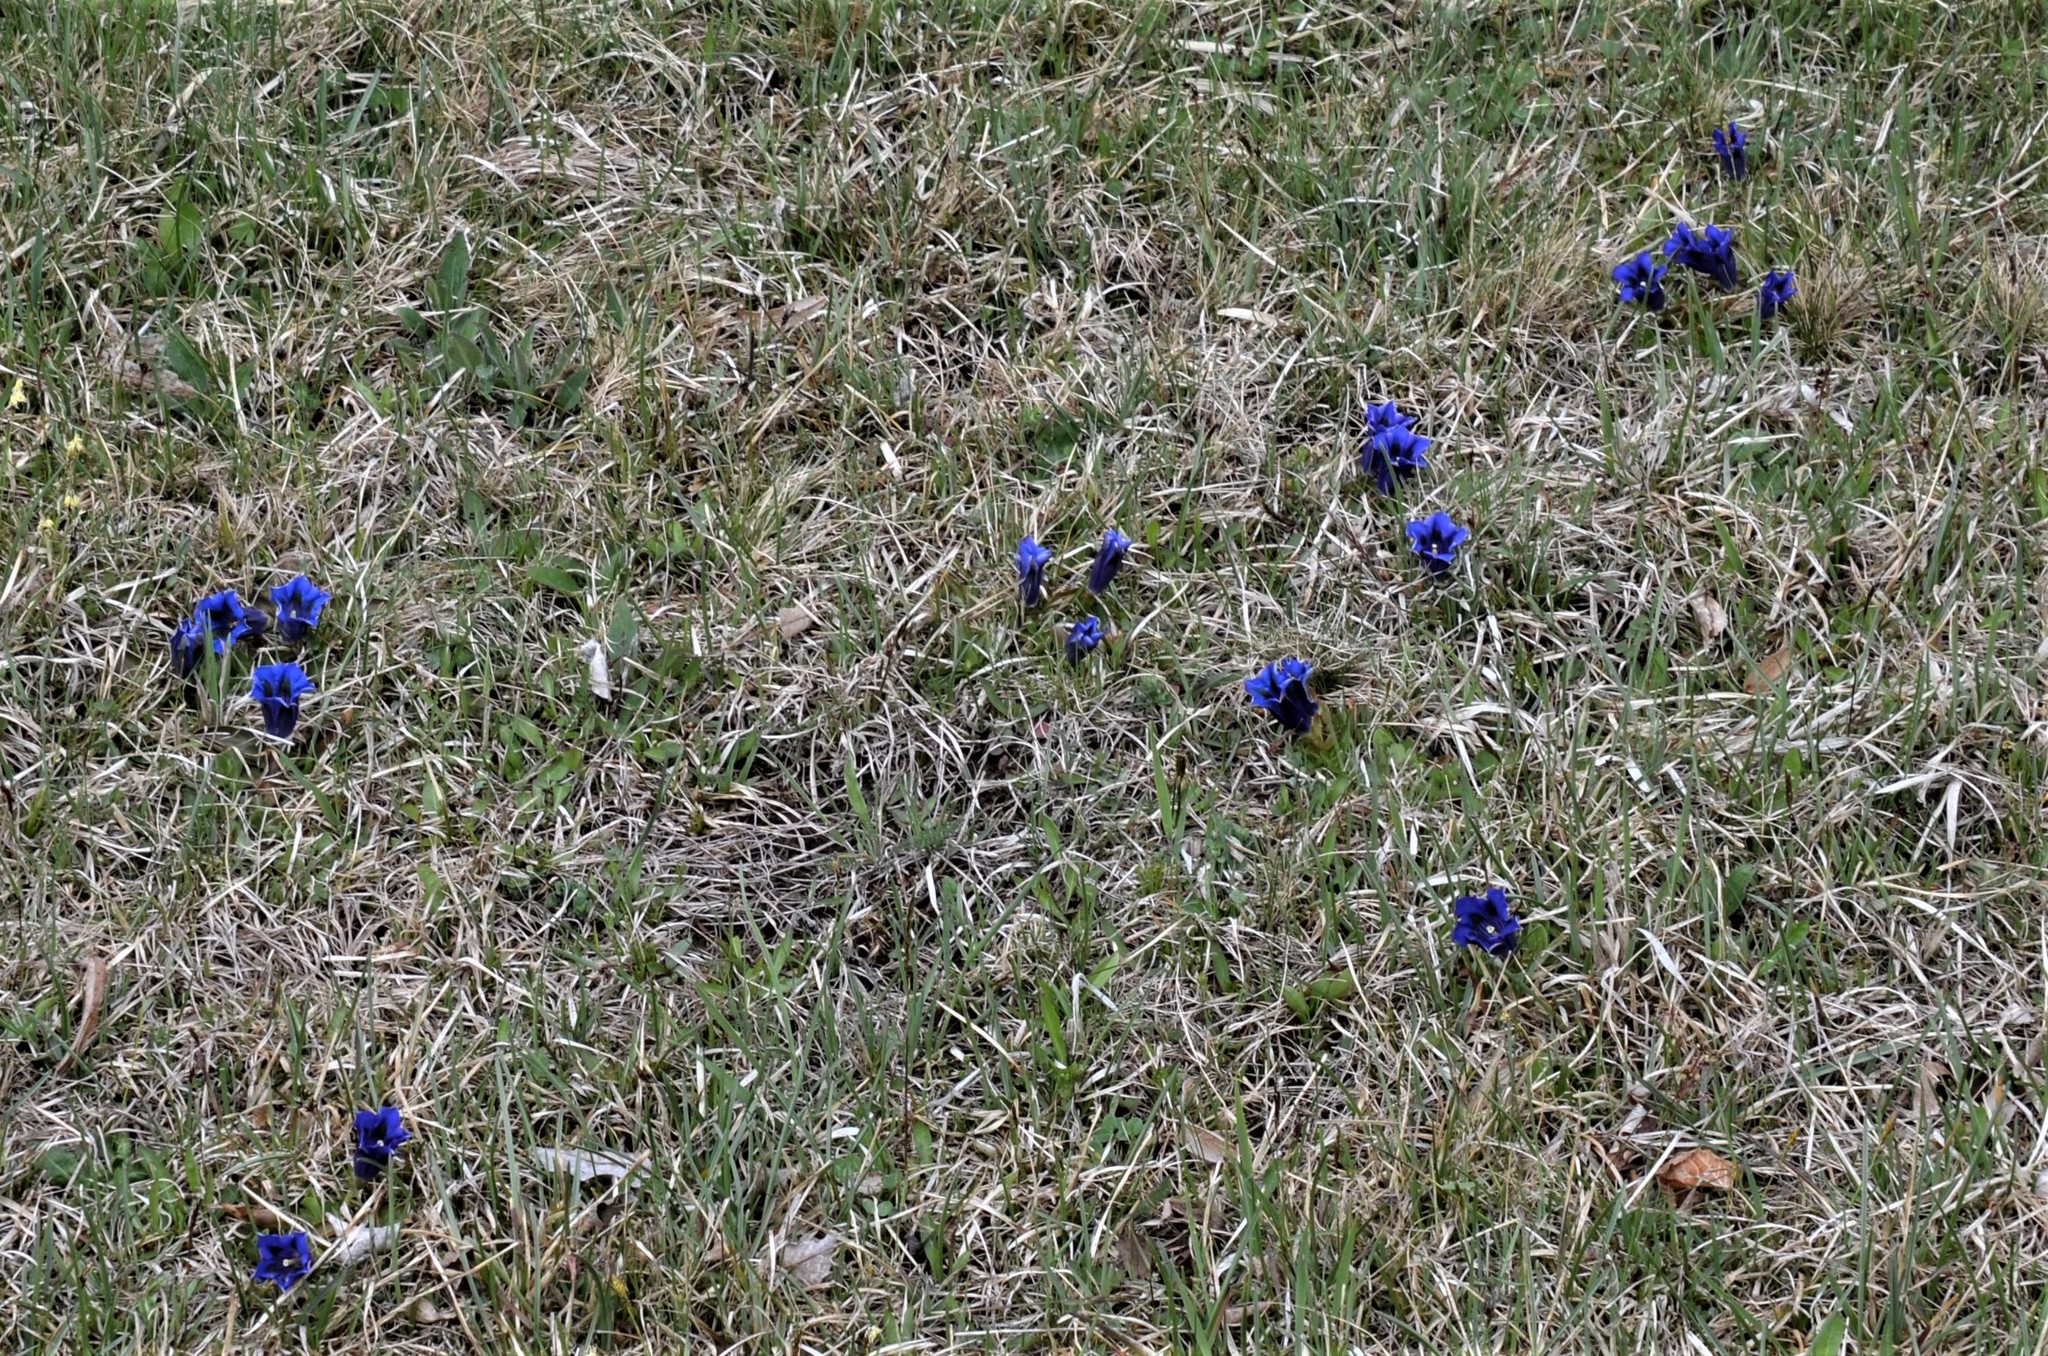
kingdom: Plantae
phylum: Tracheophyta
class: Magnoliopsida
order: Gentianales
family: Gentianaceae
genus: Gentiana
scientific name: Gentiana acaulis
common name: Trumpet gentian
